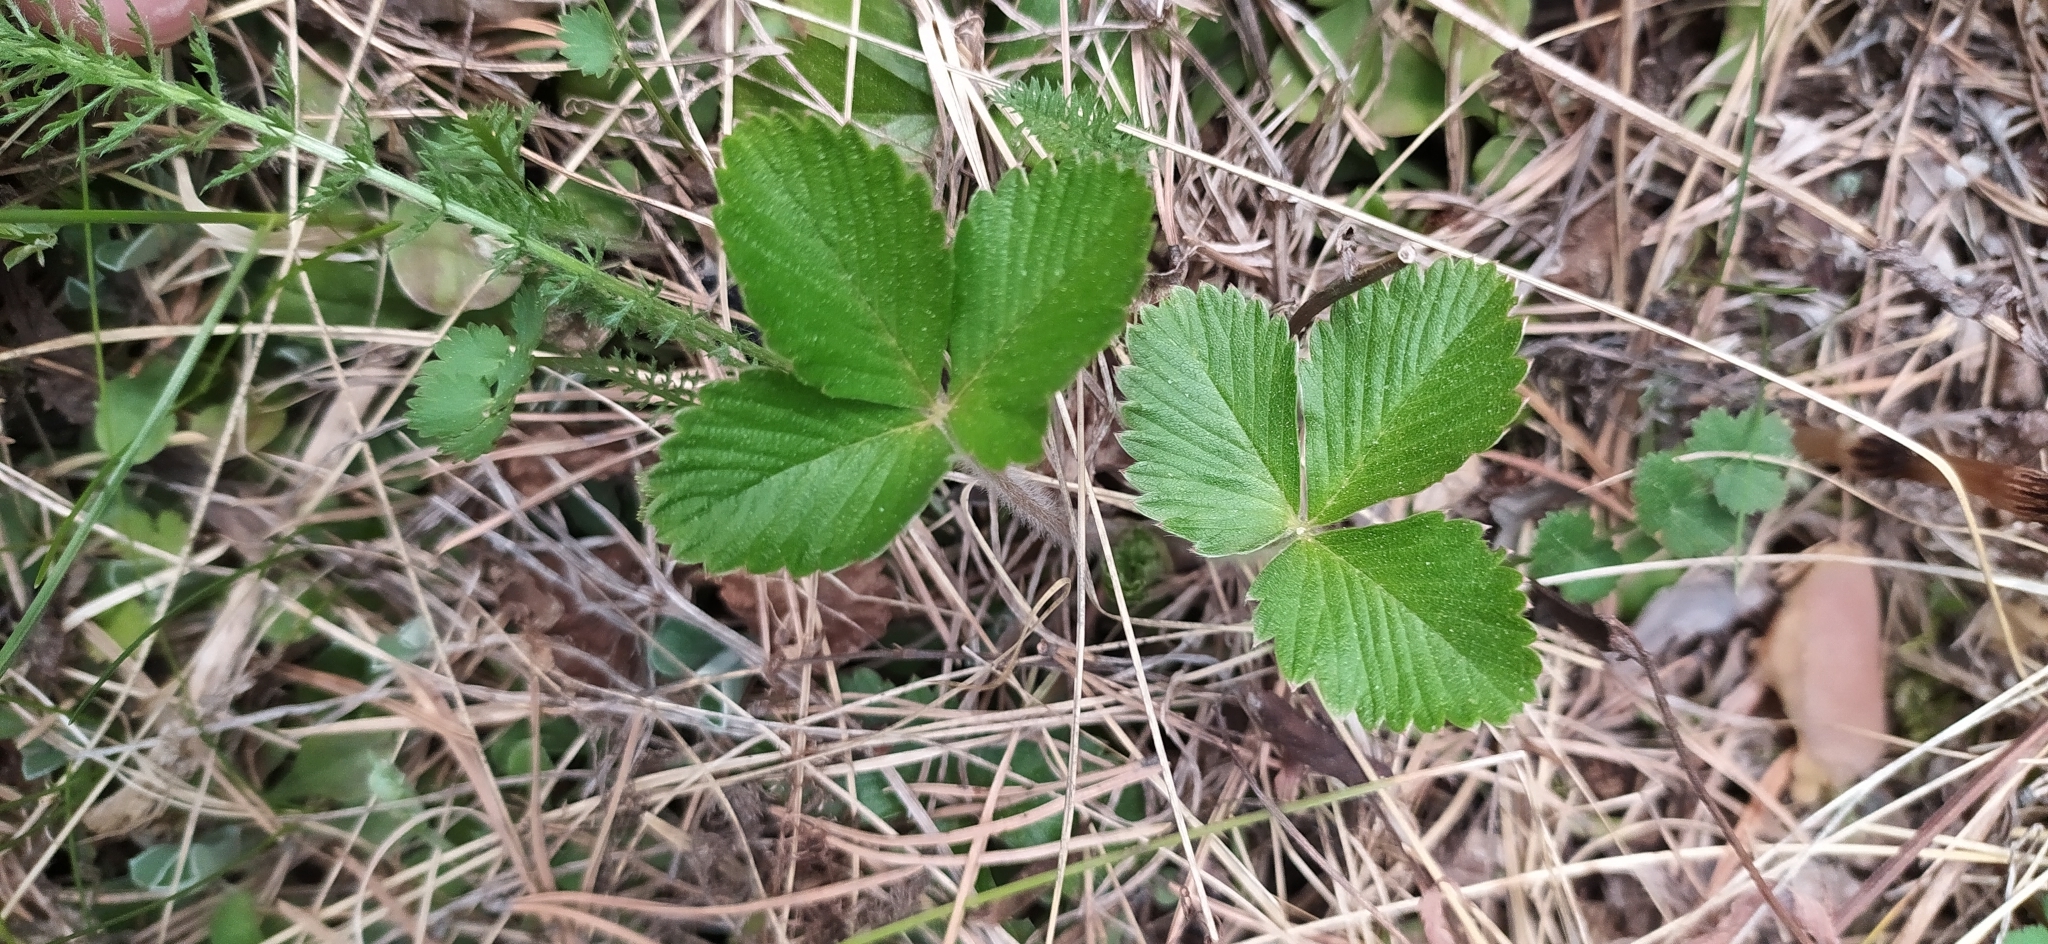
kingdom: Plantae
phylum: Tracheophyta
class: Magnoliopsida
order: Rosales
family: Rosaceae
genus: Fragaria
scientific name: Fragaria vesca
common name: Wild strawberry
